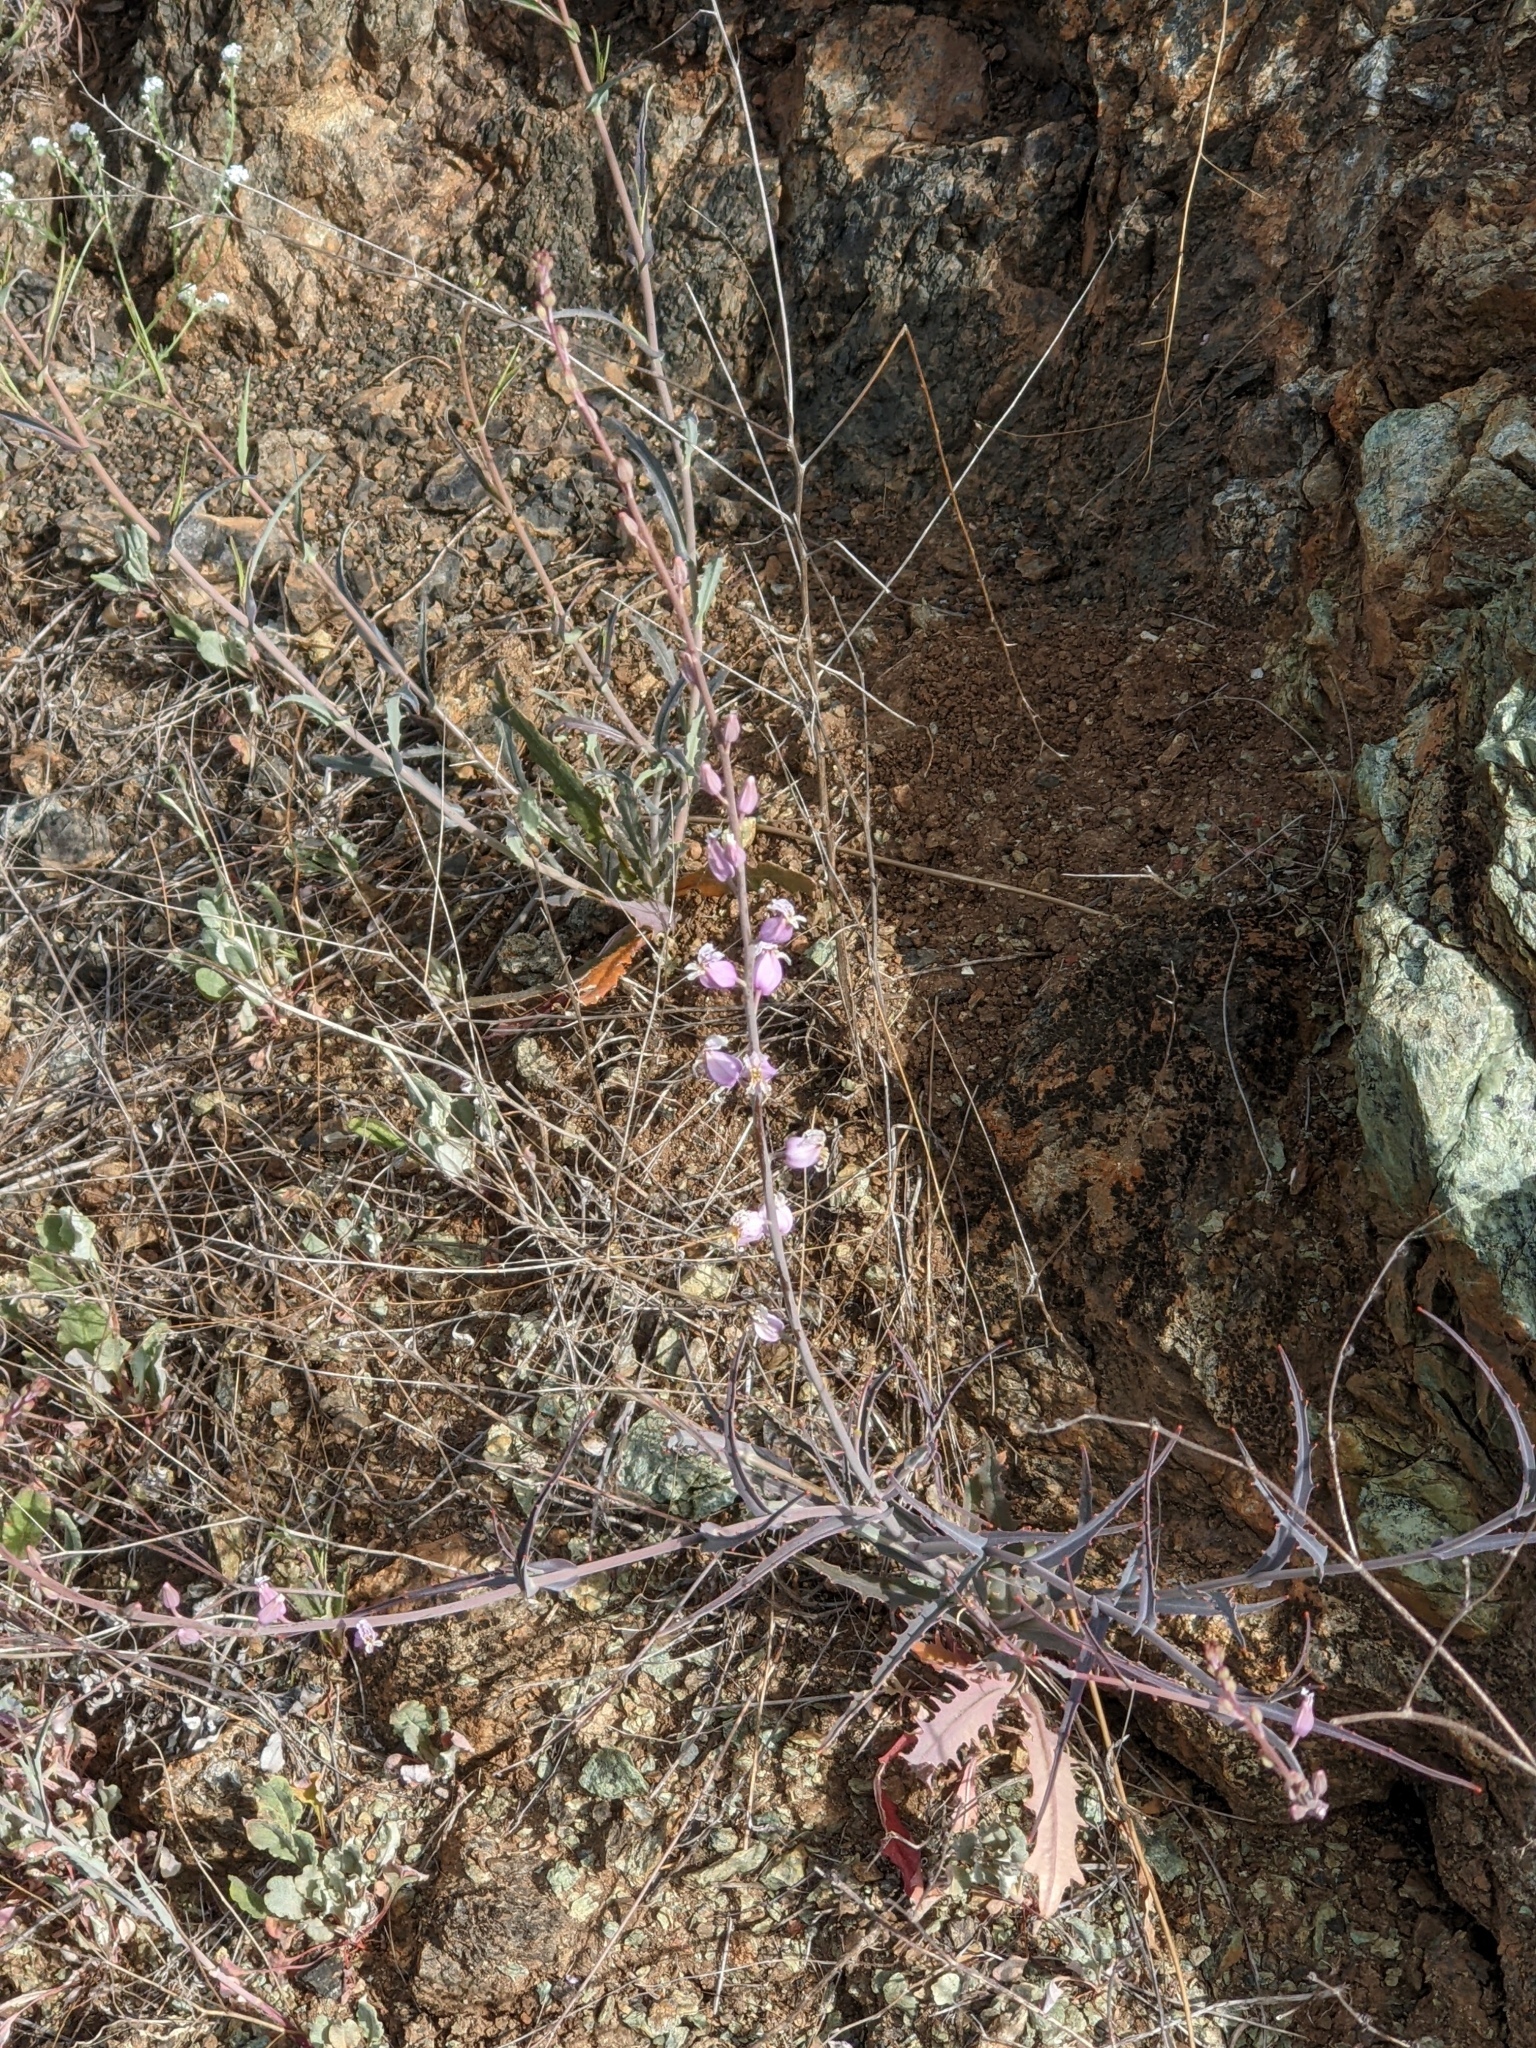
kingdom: Plantae
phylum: Tracheophyta
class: Magnoliopsida
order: Brassicales
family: Brassicaceae
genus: Streptanthus
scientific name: Streptanthus glandulosus
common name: Jewel-flower
